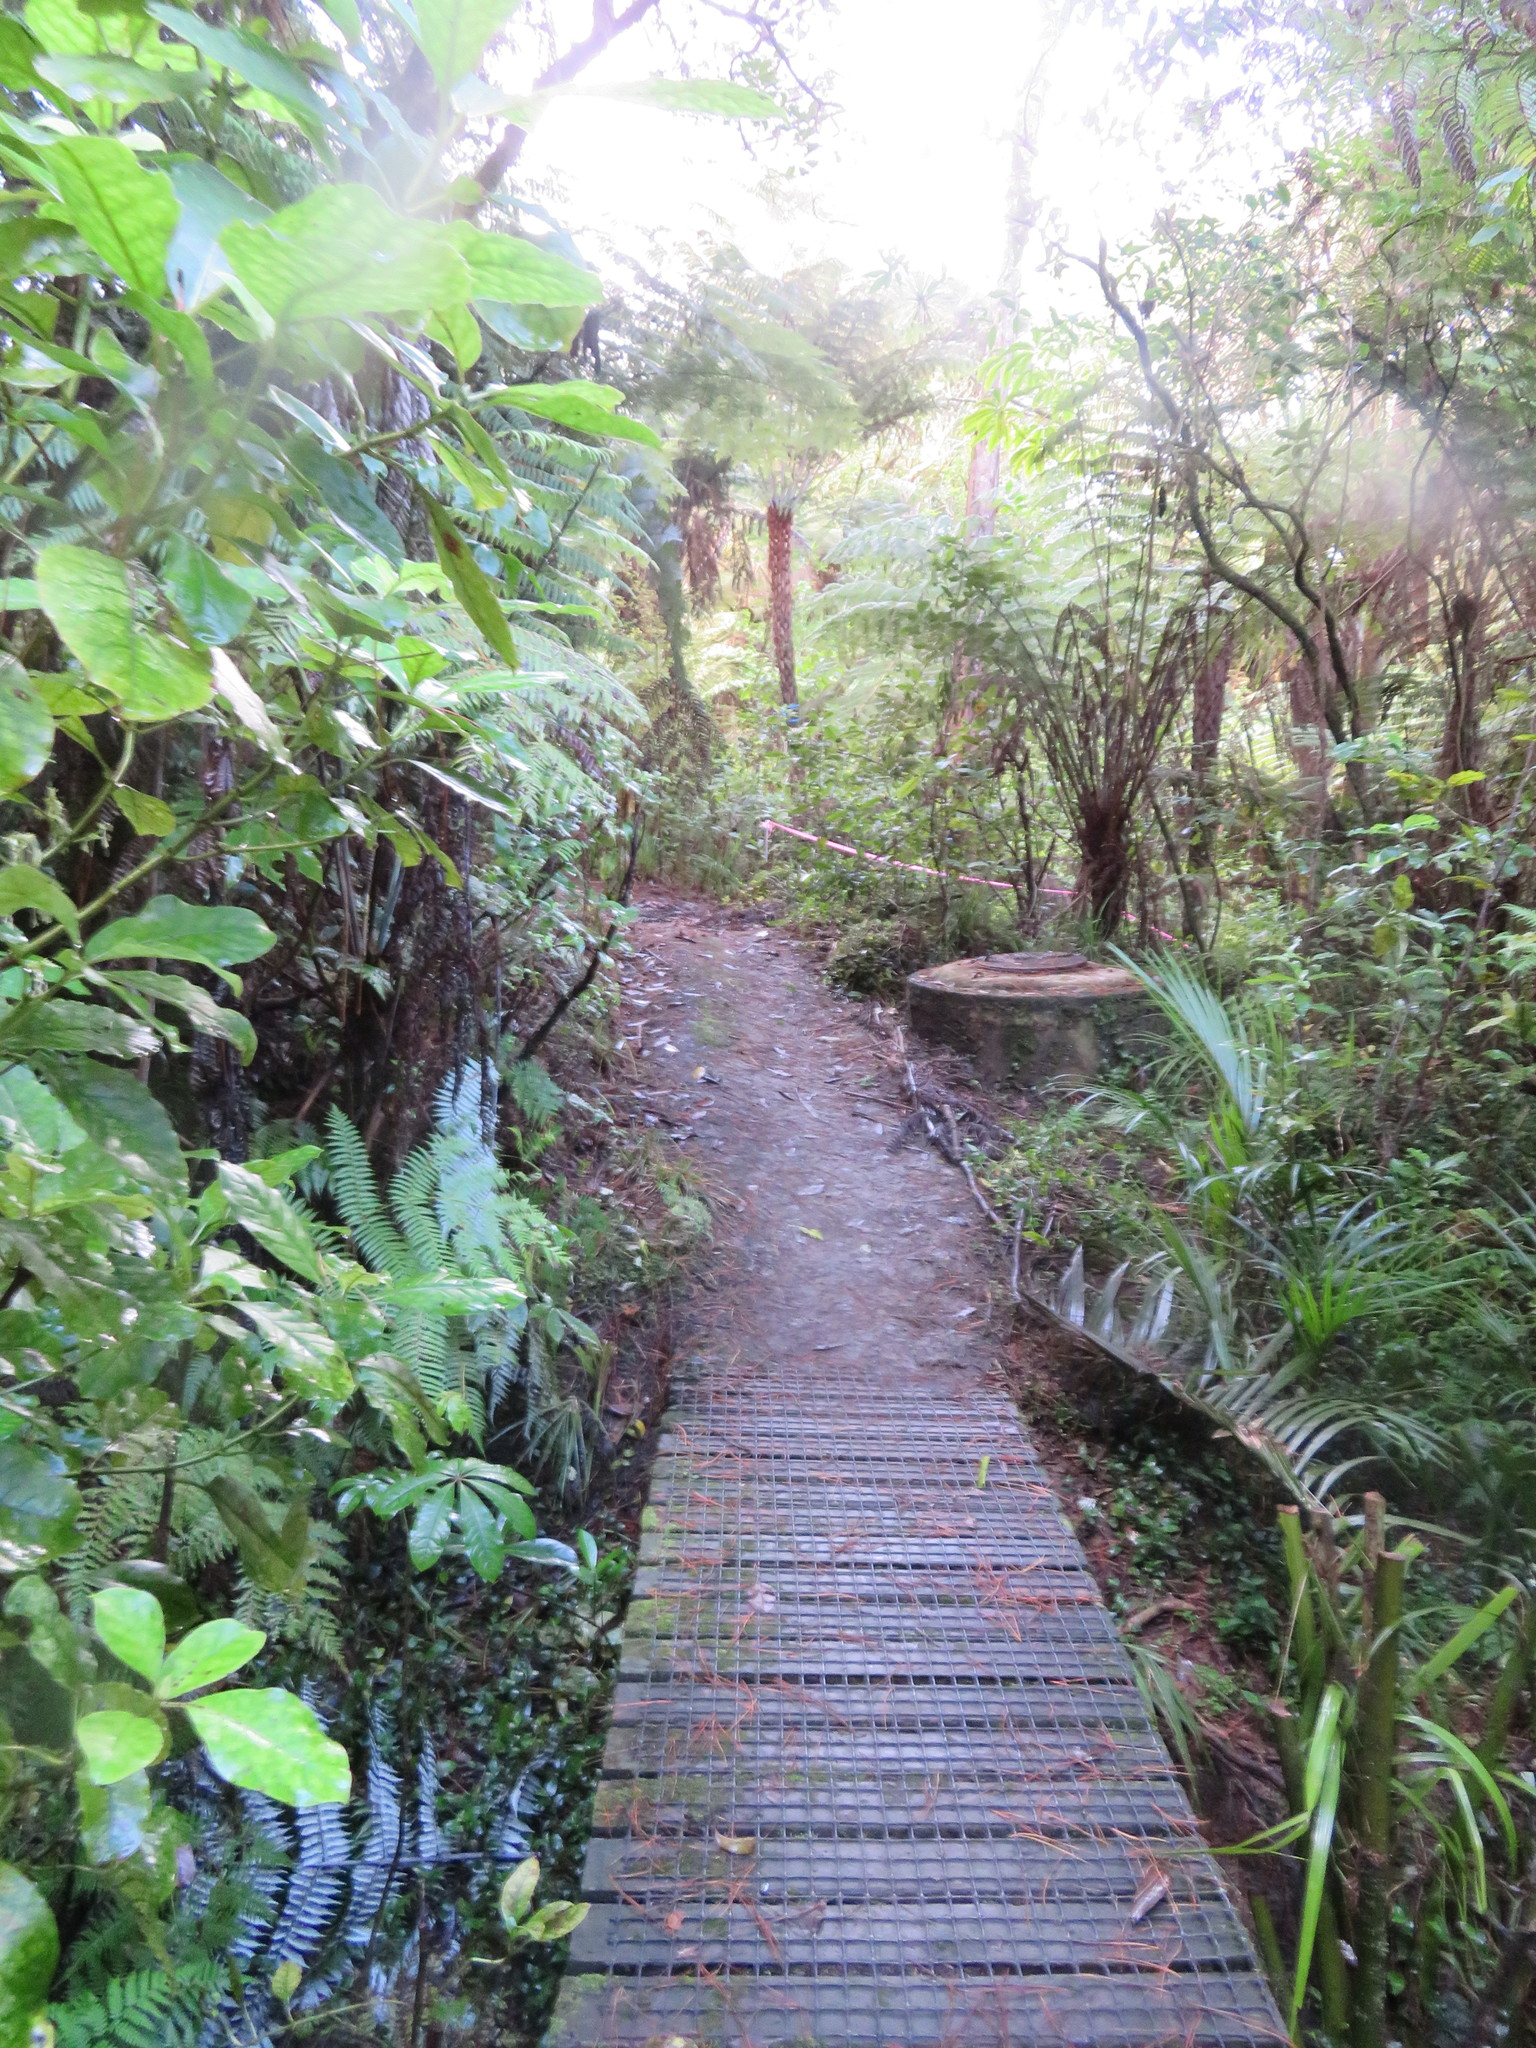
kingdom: Plantae
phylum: Tracheophyta
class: Magnoliopsida
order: Gentianales
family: Rubiaceae
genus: Coprosma
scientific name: Coprosma autumnalis
